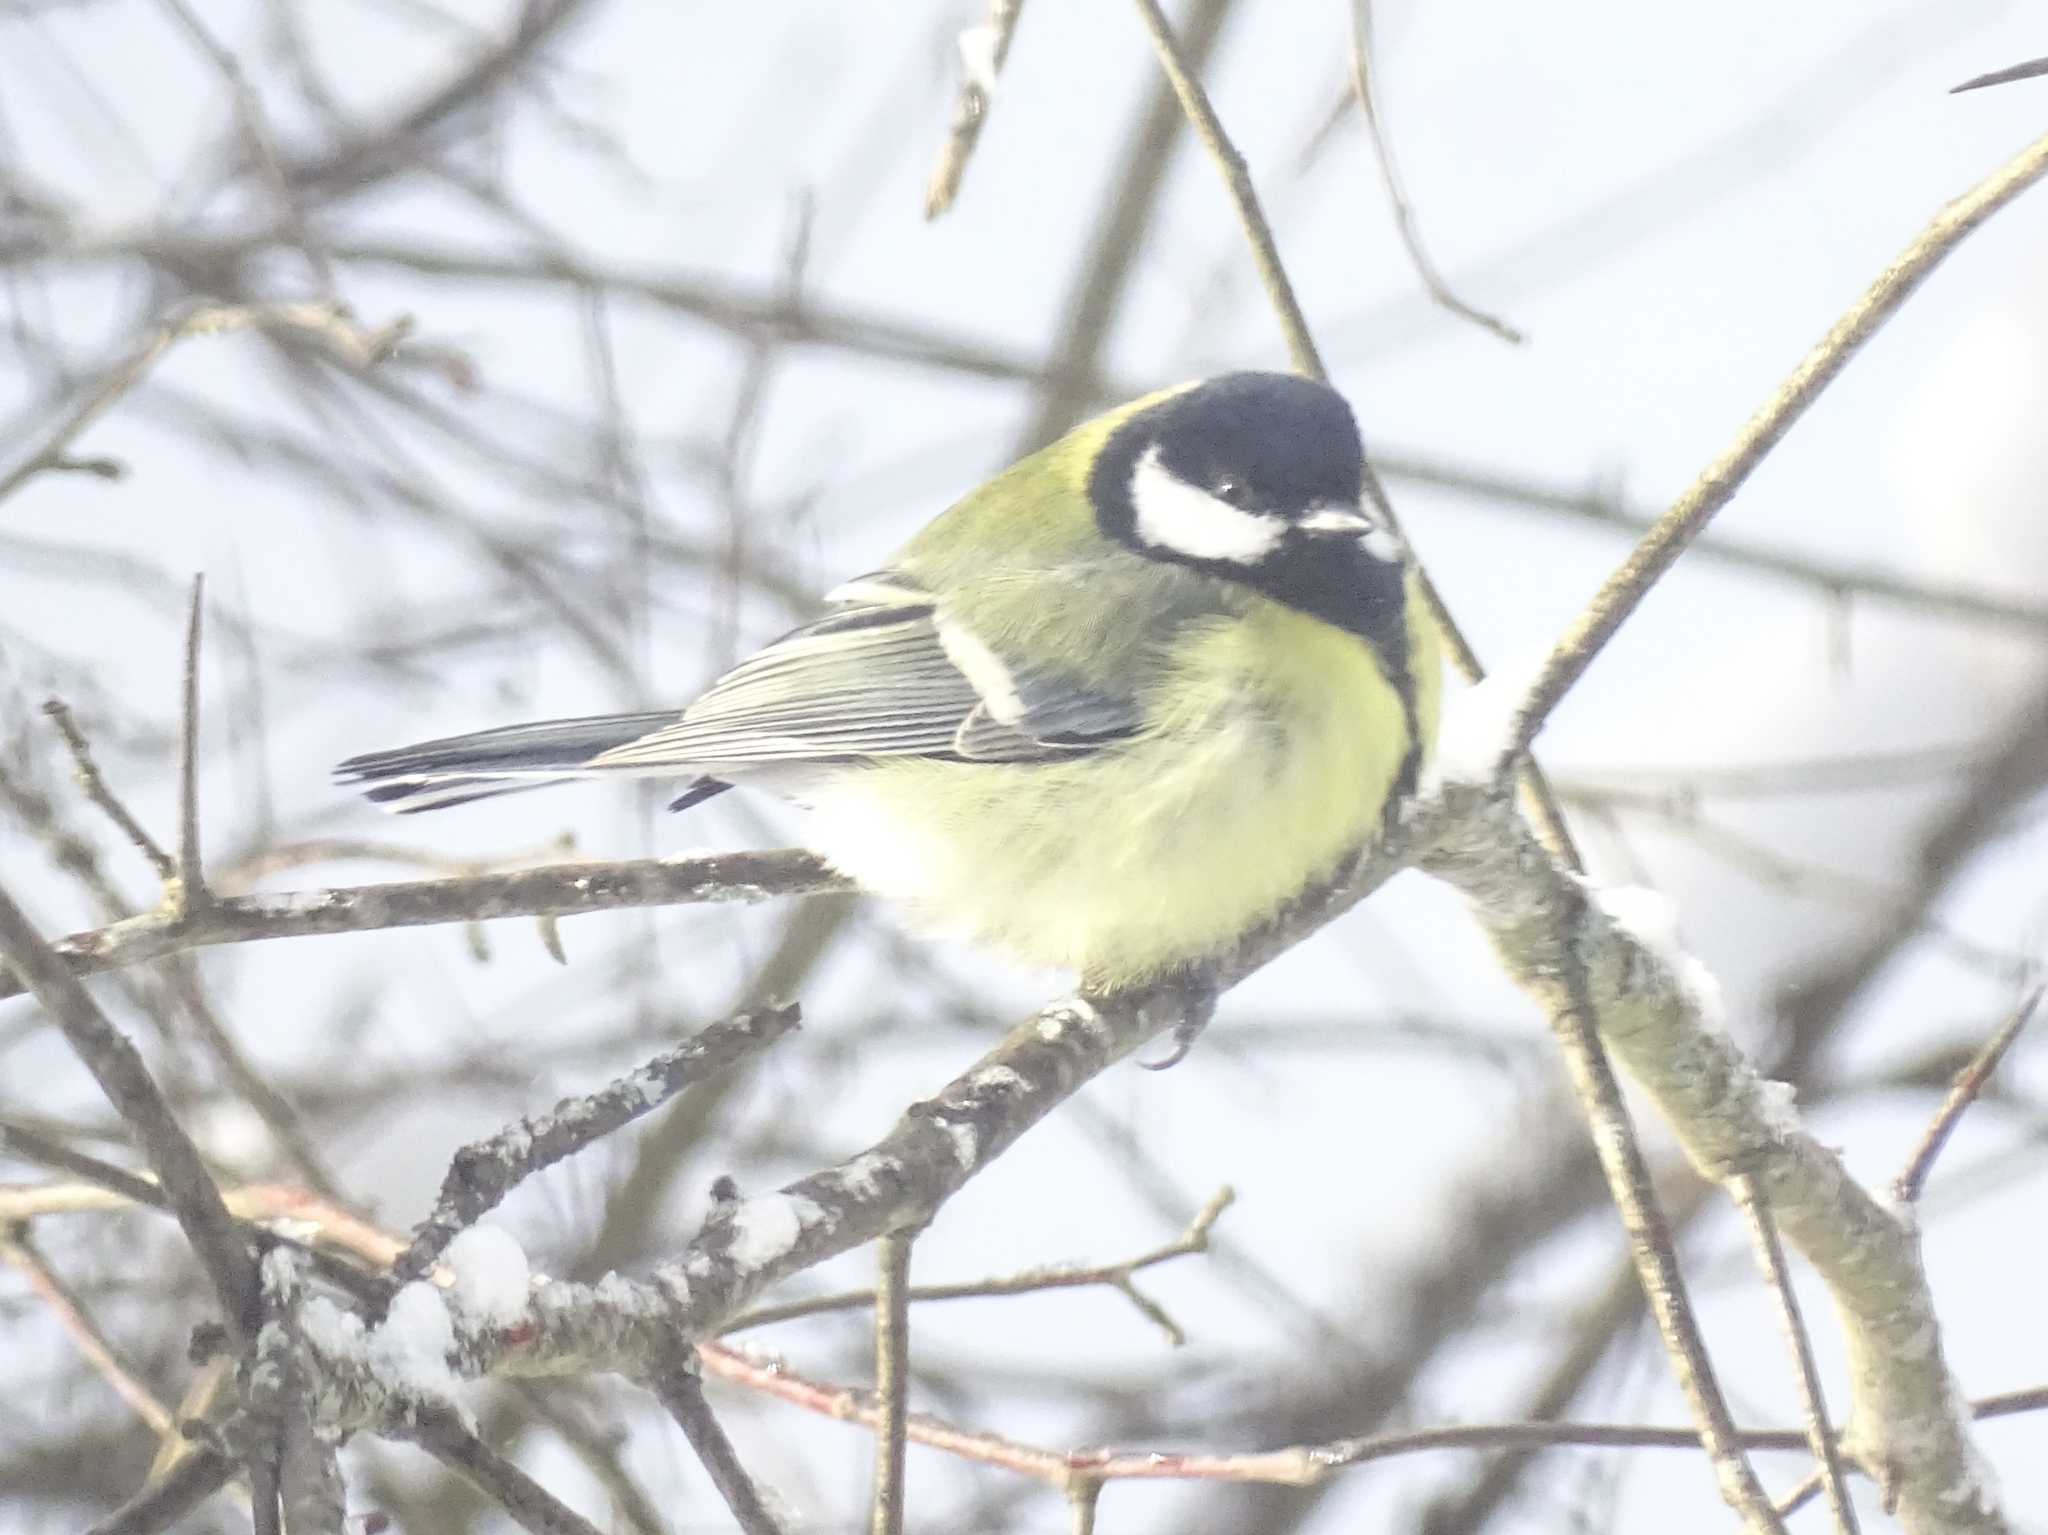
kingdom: Animalia
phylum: Chordata
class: Aves
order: Passeriformes
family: Paridae
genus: Parus
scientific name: Parus major
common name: Great tit
